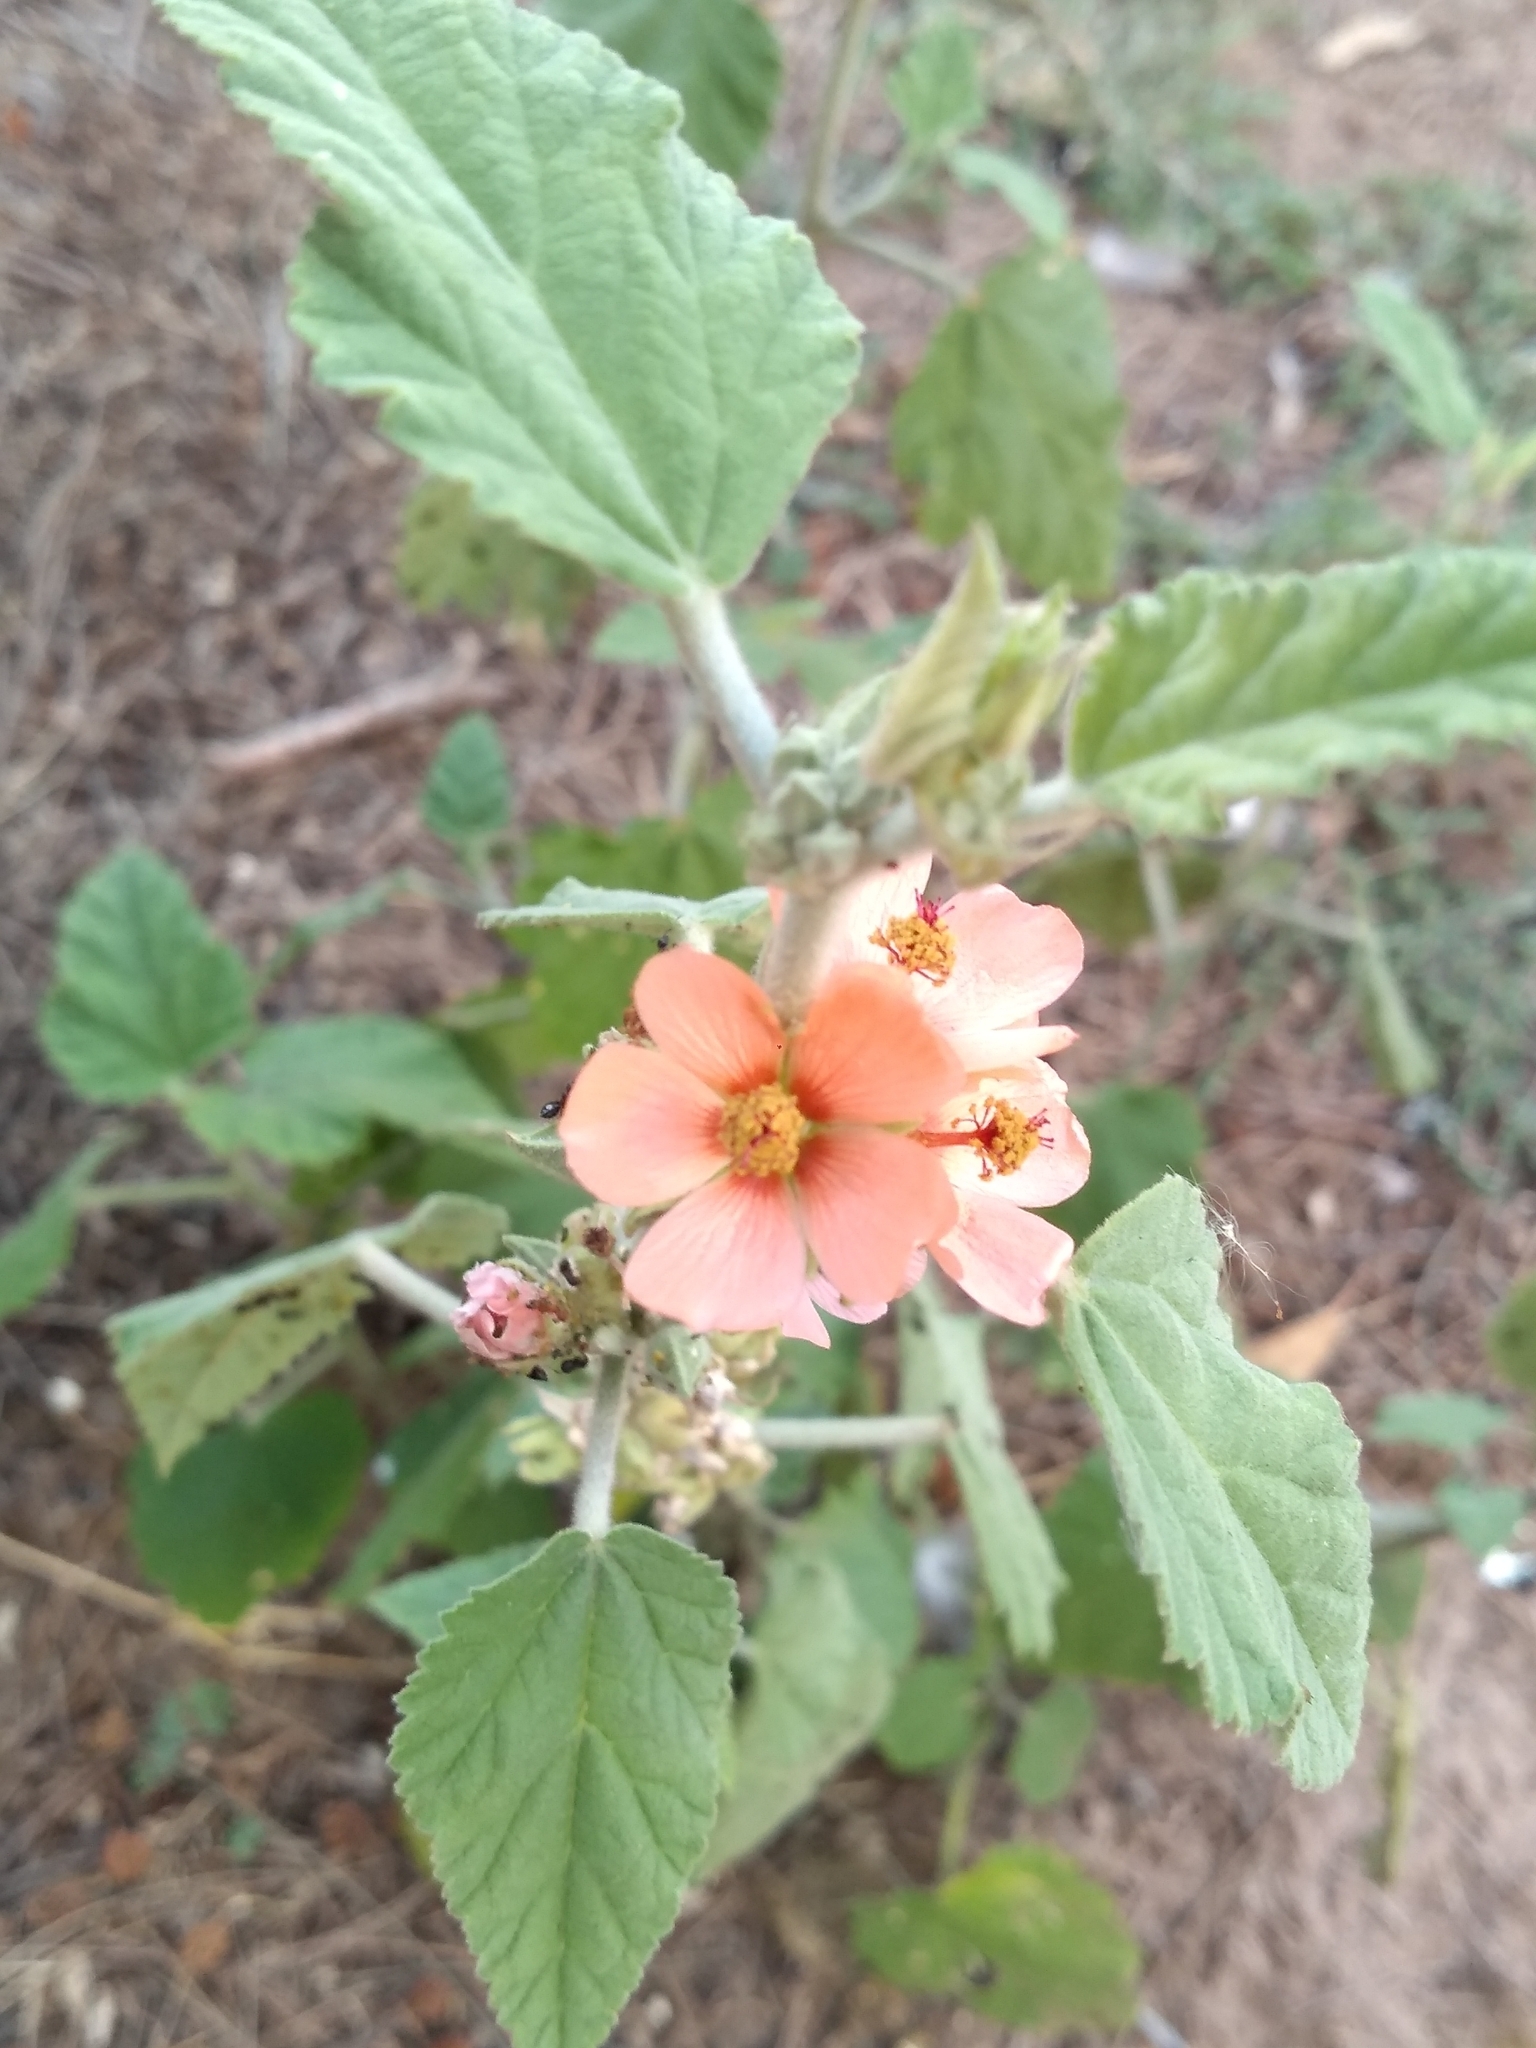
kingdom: Plantae
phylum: Tracheophyta
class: Magnoliopsida
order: Malvales
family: Malvaceae
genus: Sphaeralcea
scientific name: Sphaeralcea bonariensis
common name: Latin globemallow
